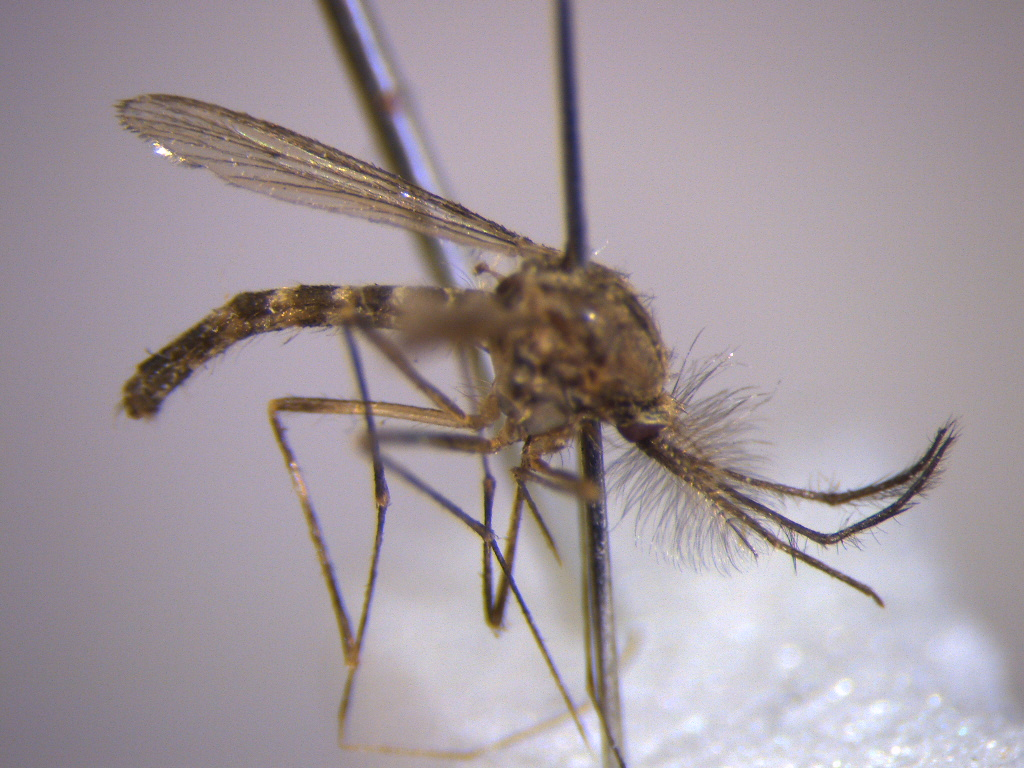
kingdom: Animalia
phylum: Arthropoda
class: Insecta
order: Diptera
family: Culicidae
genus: Culex
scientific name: Culex pervigilans
